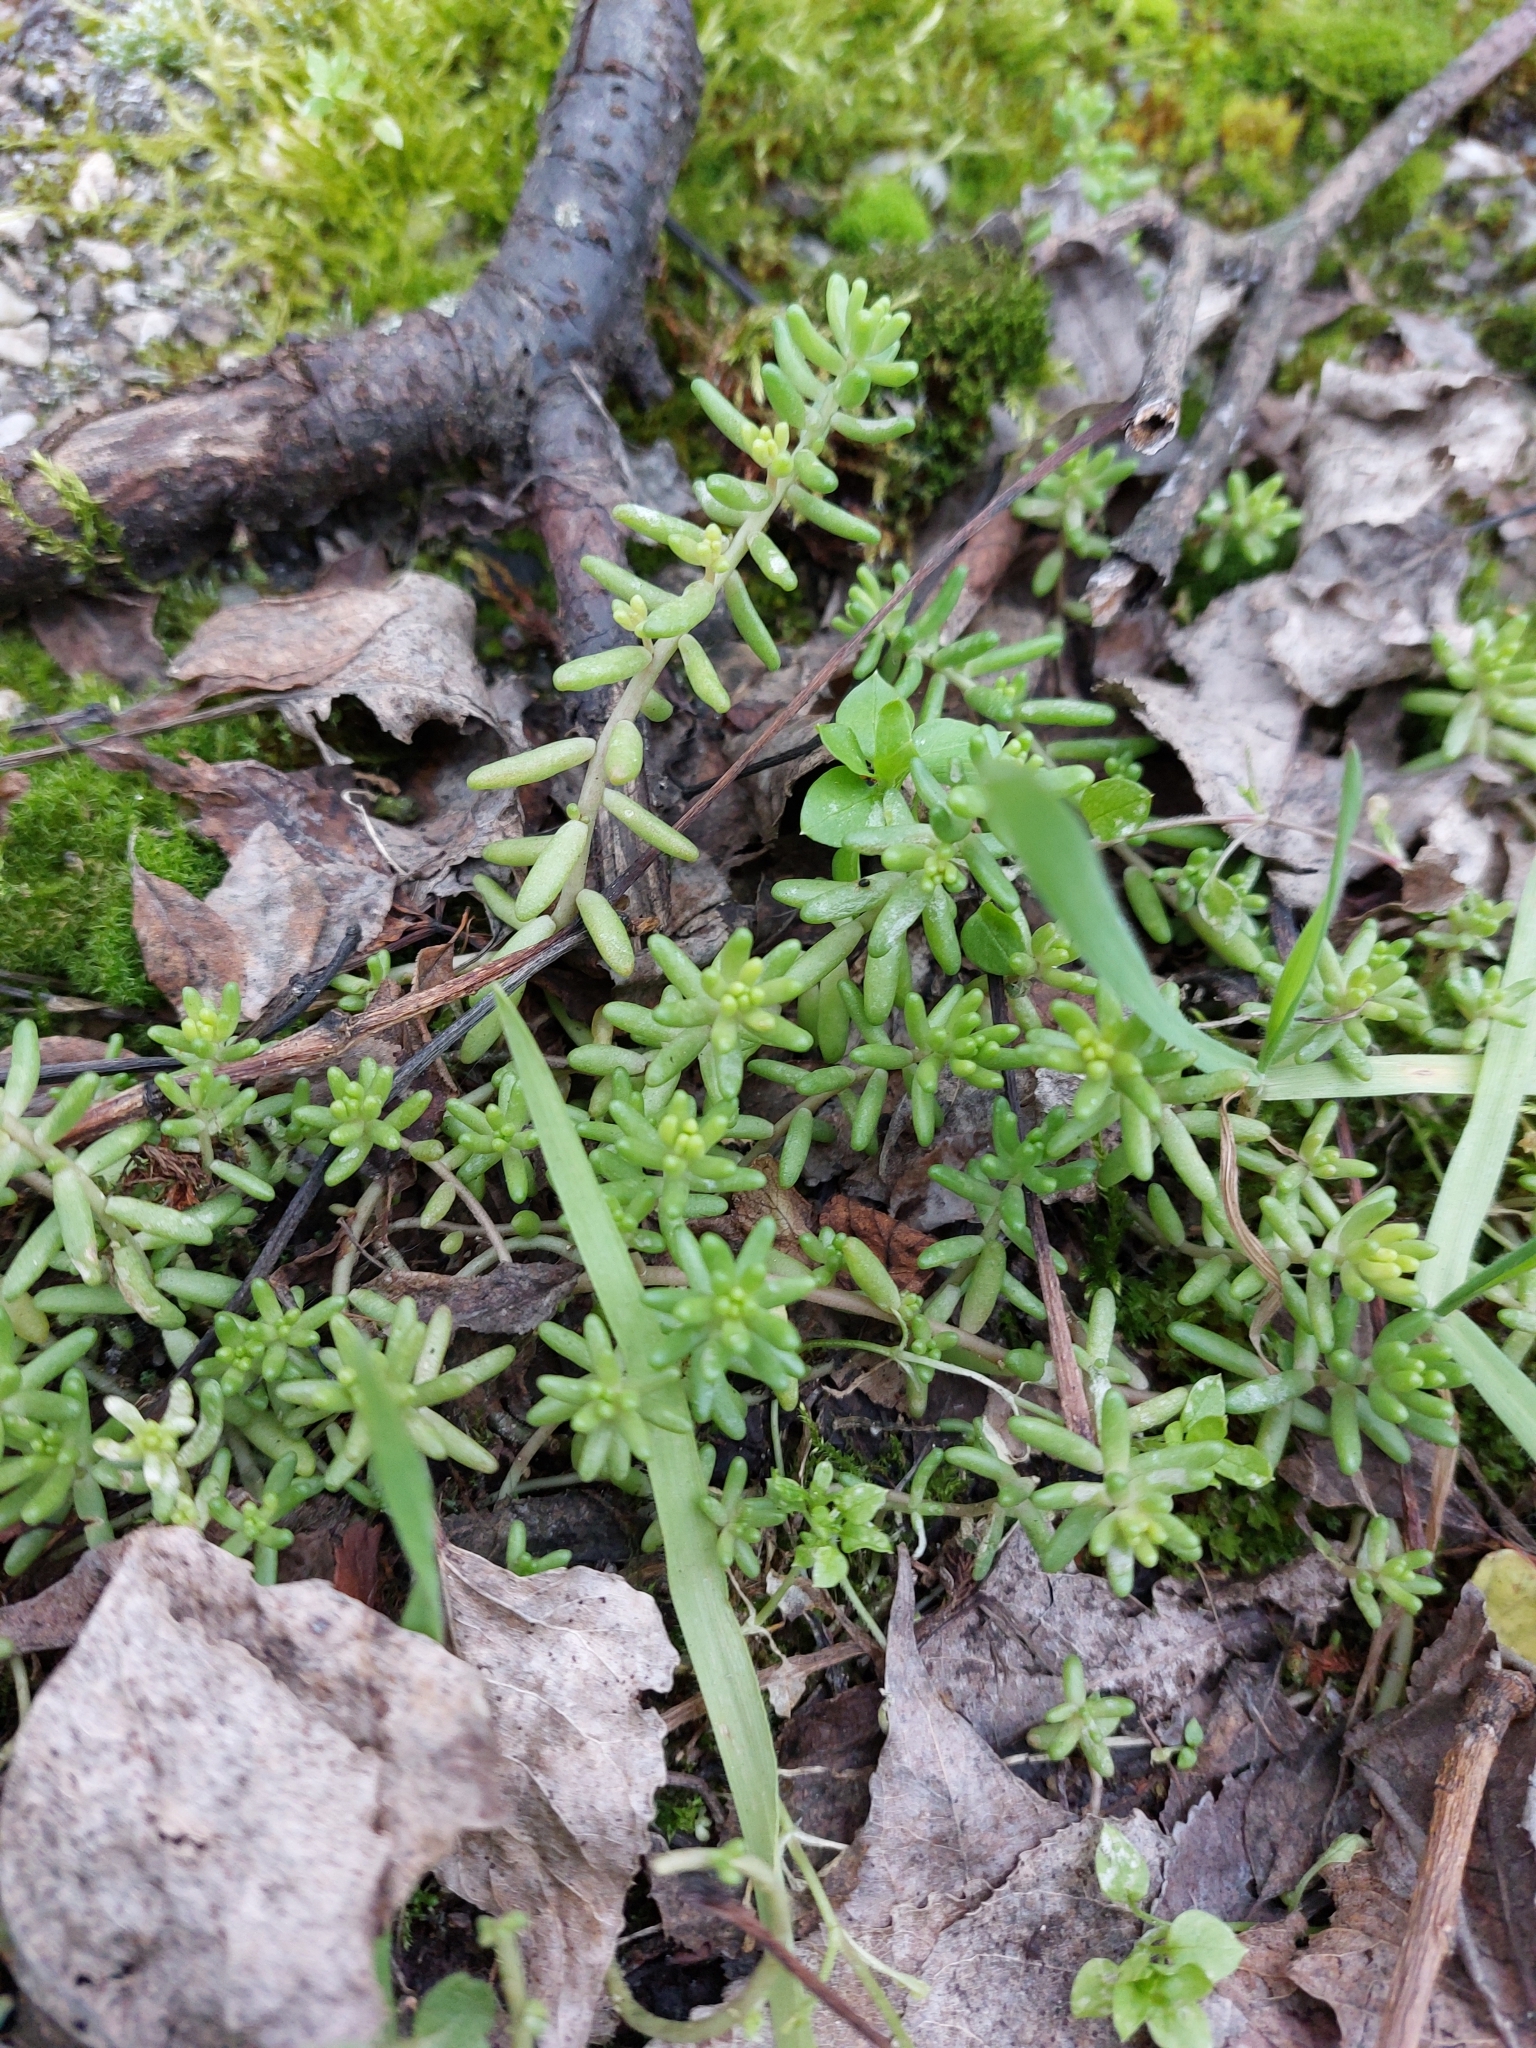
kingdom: Plantae
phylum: Tracheophyta
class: Magnoliopsida
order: Saxifragales
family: Crassulaceae
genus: Sedum
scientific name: Sedum album
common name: White stonecrop
